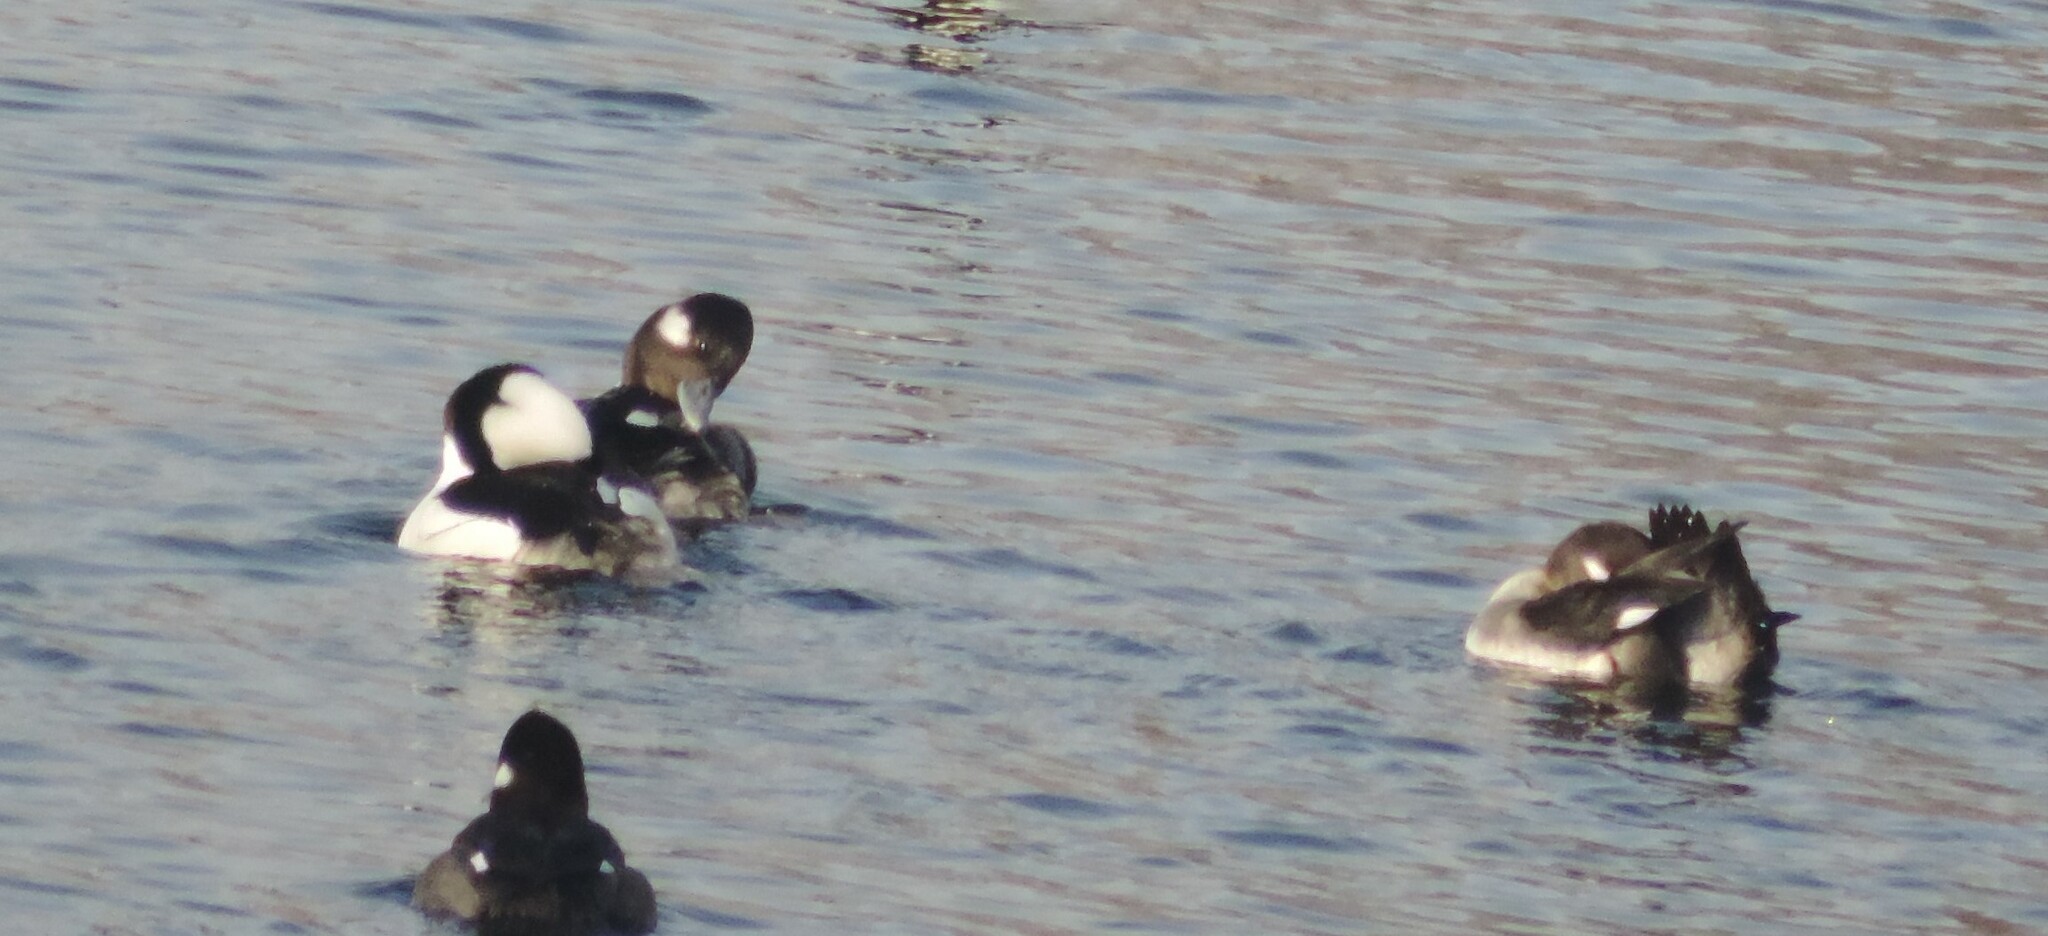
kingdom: Animalia
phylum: Chordata
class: Aves
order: Anseriformes
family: Anatidae
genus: Bucephala
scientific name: Bucephala albeola
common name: Bufflehead
